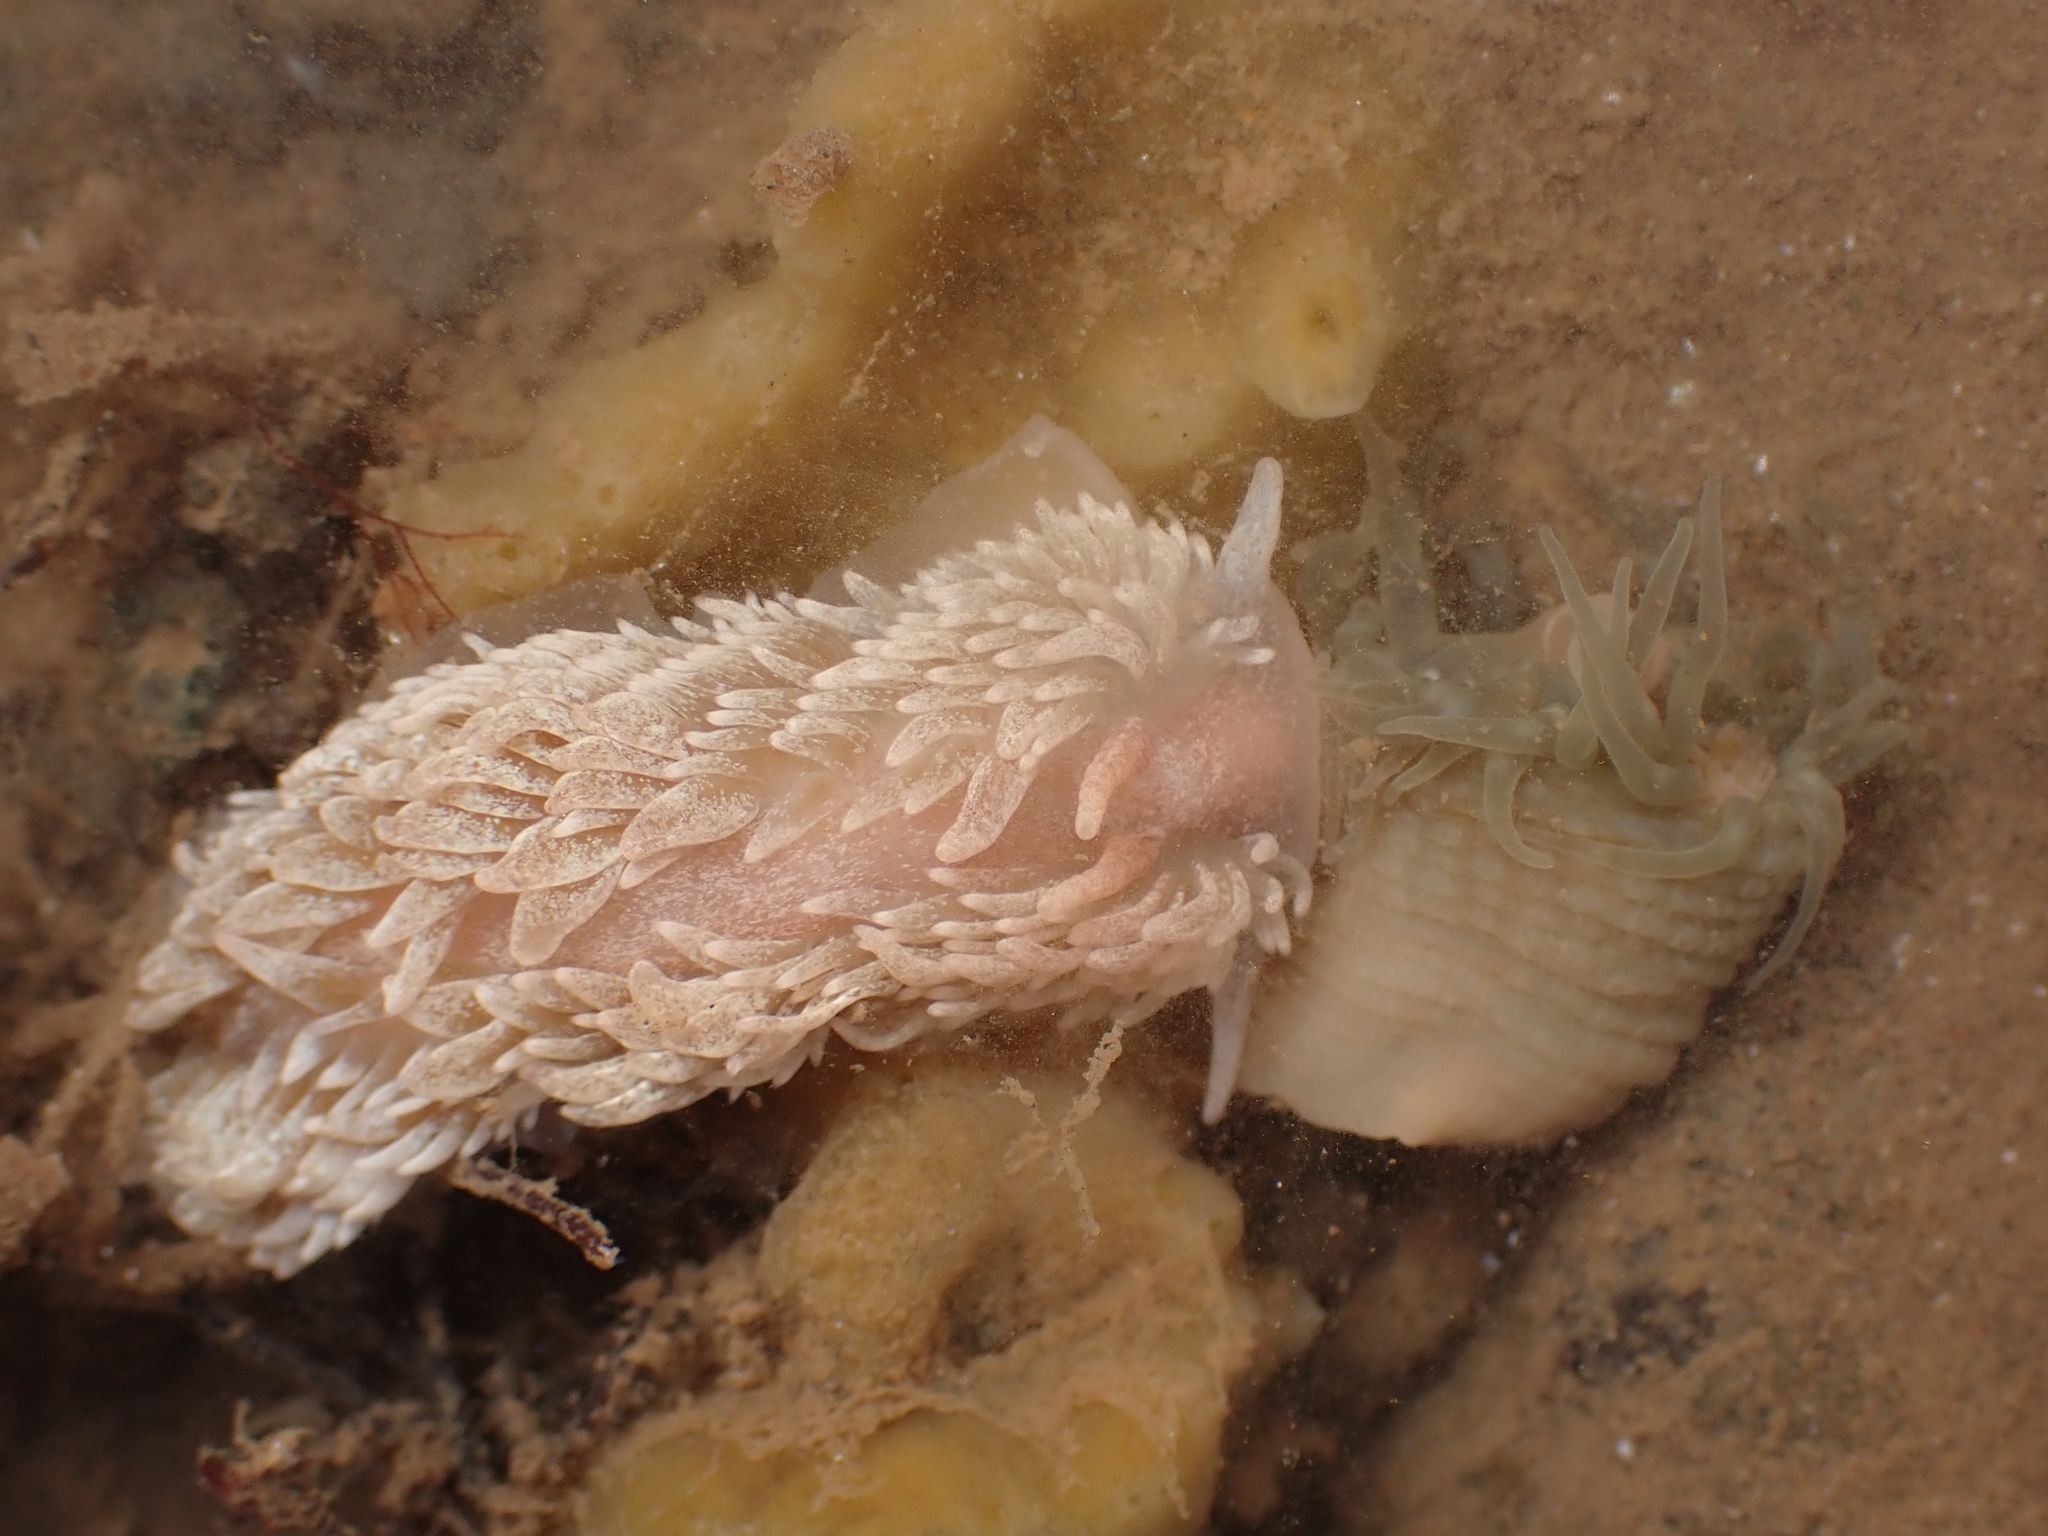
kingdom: Animalia
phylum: Mollusca
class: Gastropoda
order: Nudibranchia
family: Aeolidiidae
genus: Aeolidia
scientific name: Aeolidia papillosa
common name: Common grey sea slug
